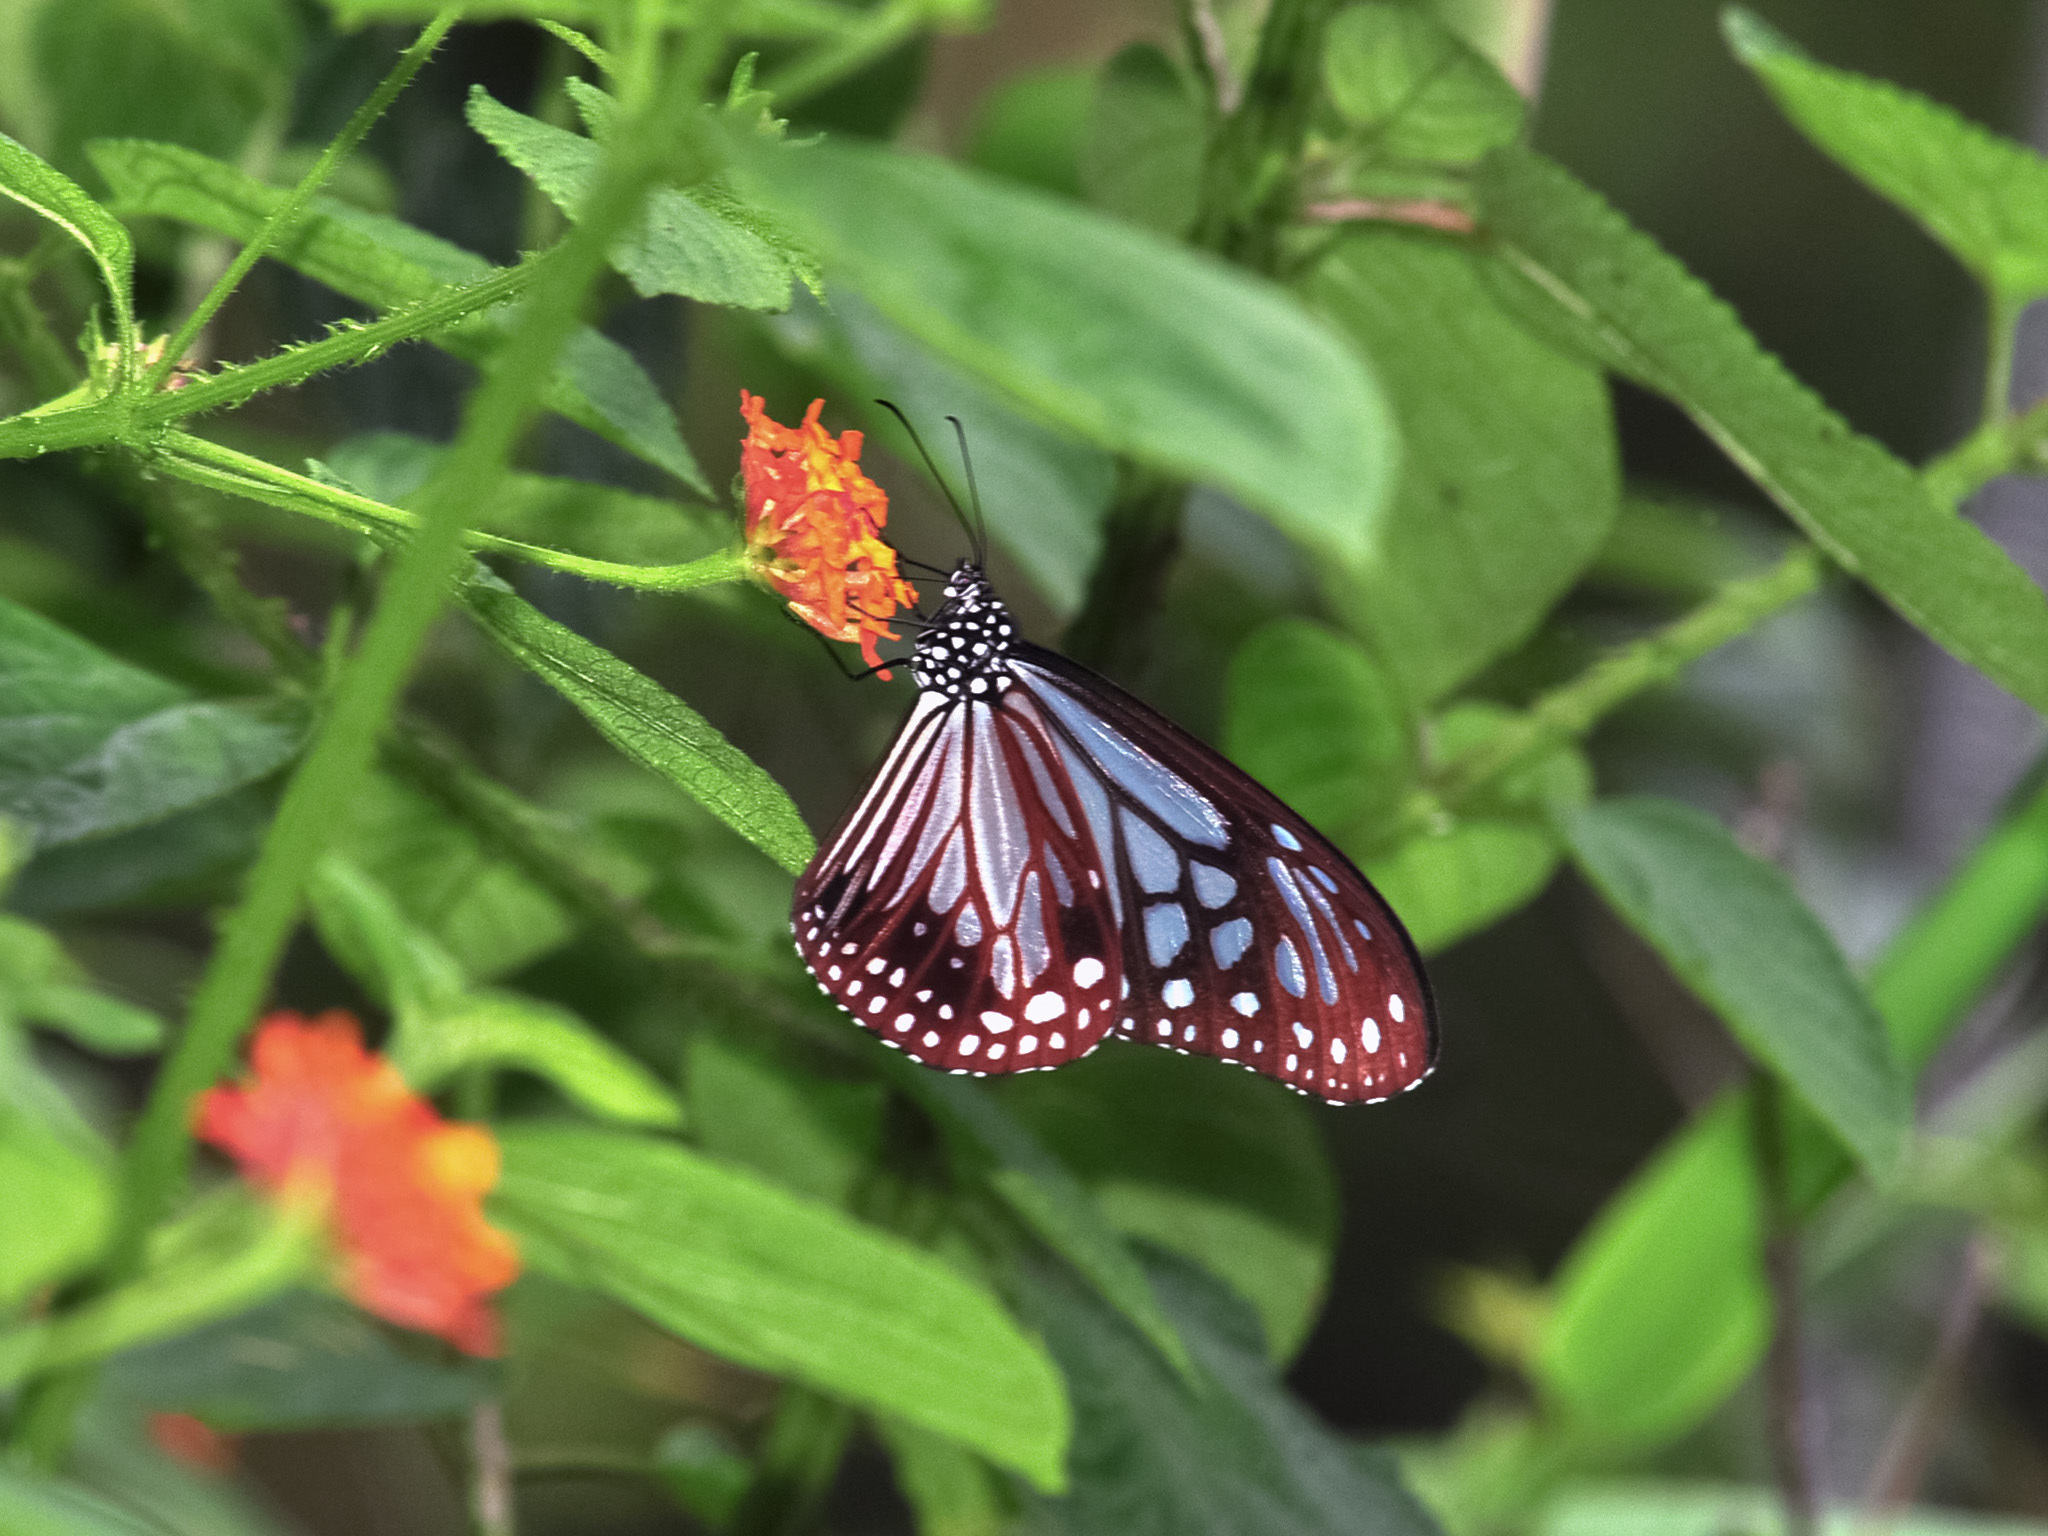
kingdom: Animalia
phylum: Arthropoda
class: Insecta
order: Lepidoptera
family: Nymphalidae
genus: Parantica
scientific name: Parantica melaneus
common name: Chocolate tiger
